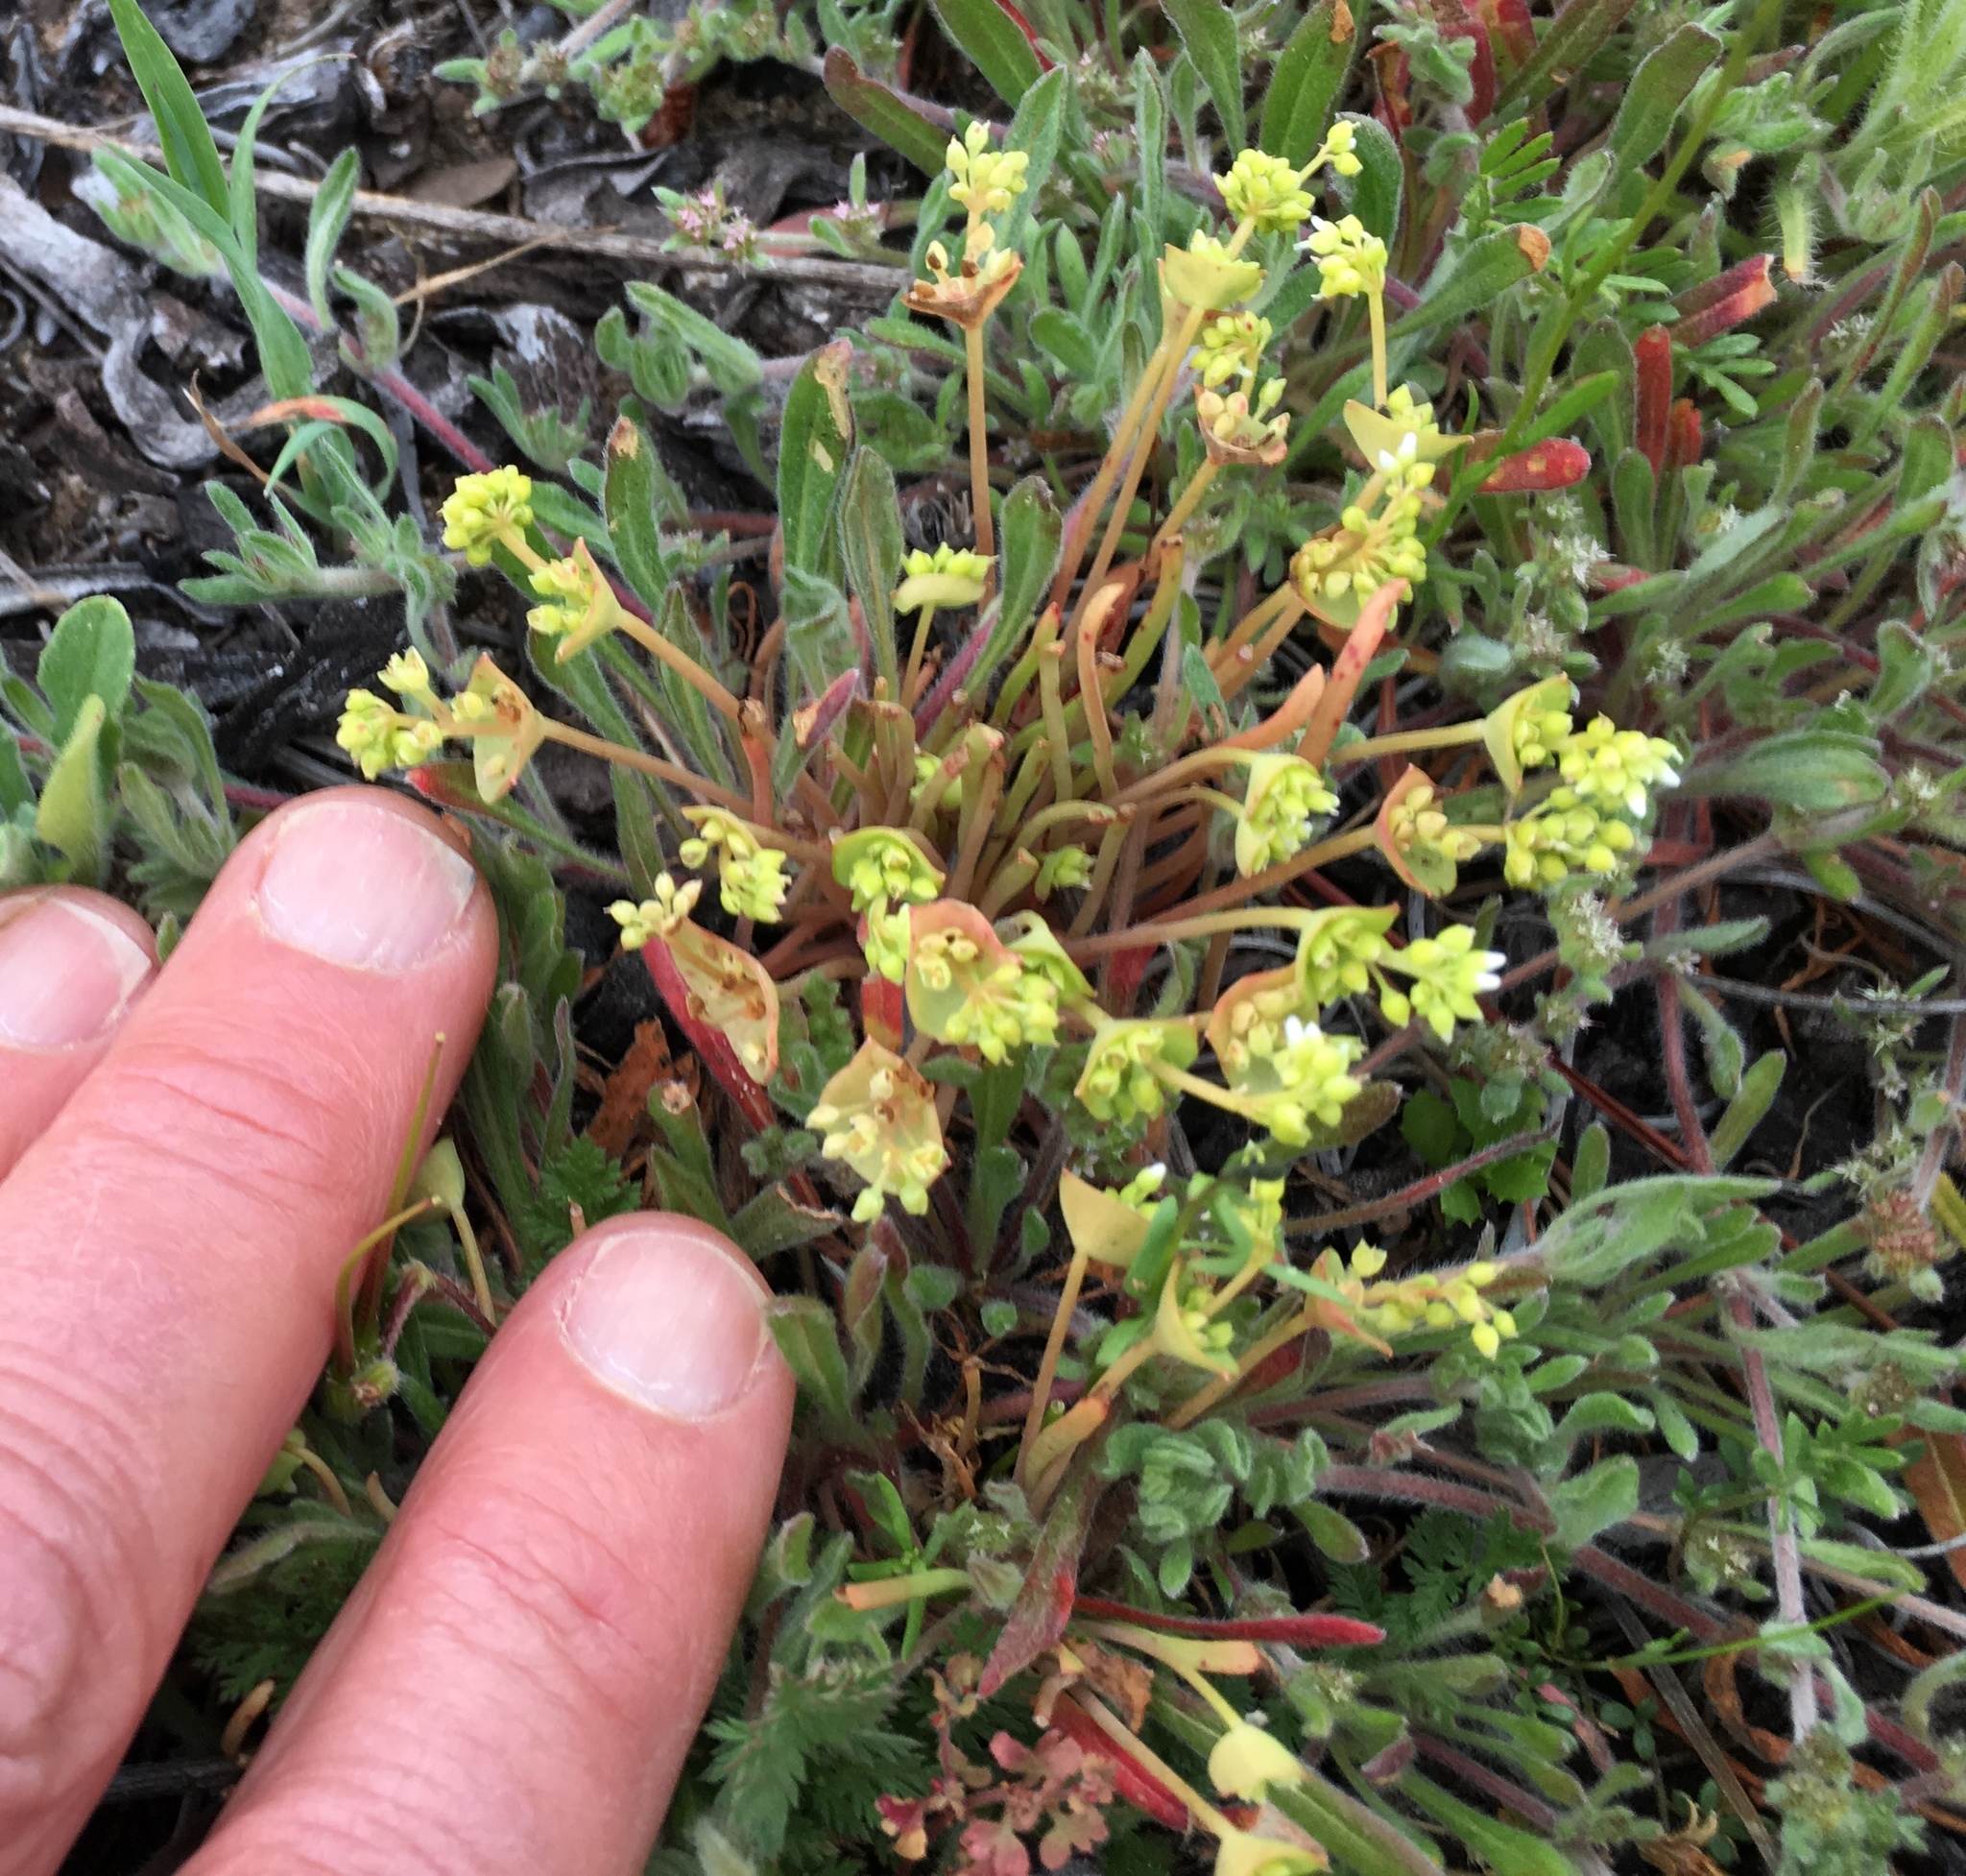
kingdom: Plantae
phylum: Tracheophyta
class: Magnoliopsida
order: Caryophyllales
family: Montiaceae
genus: Claytonia
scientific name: Claytonia parviflora
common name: Indian-lettuce
